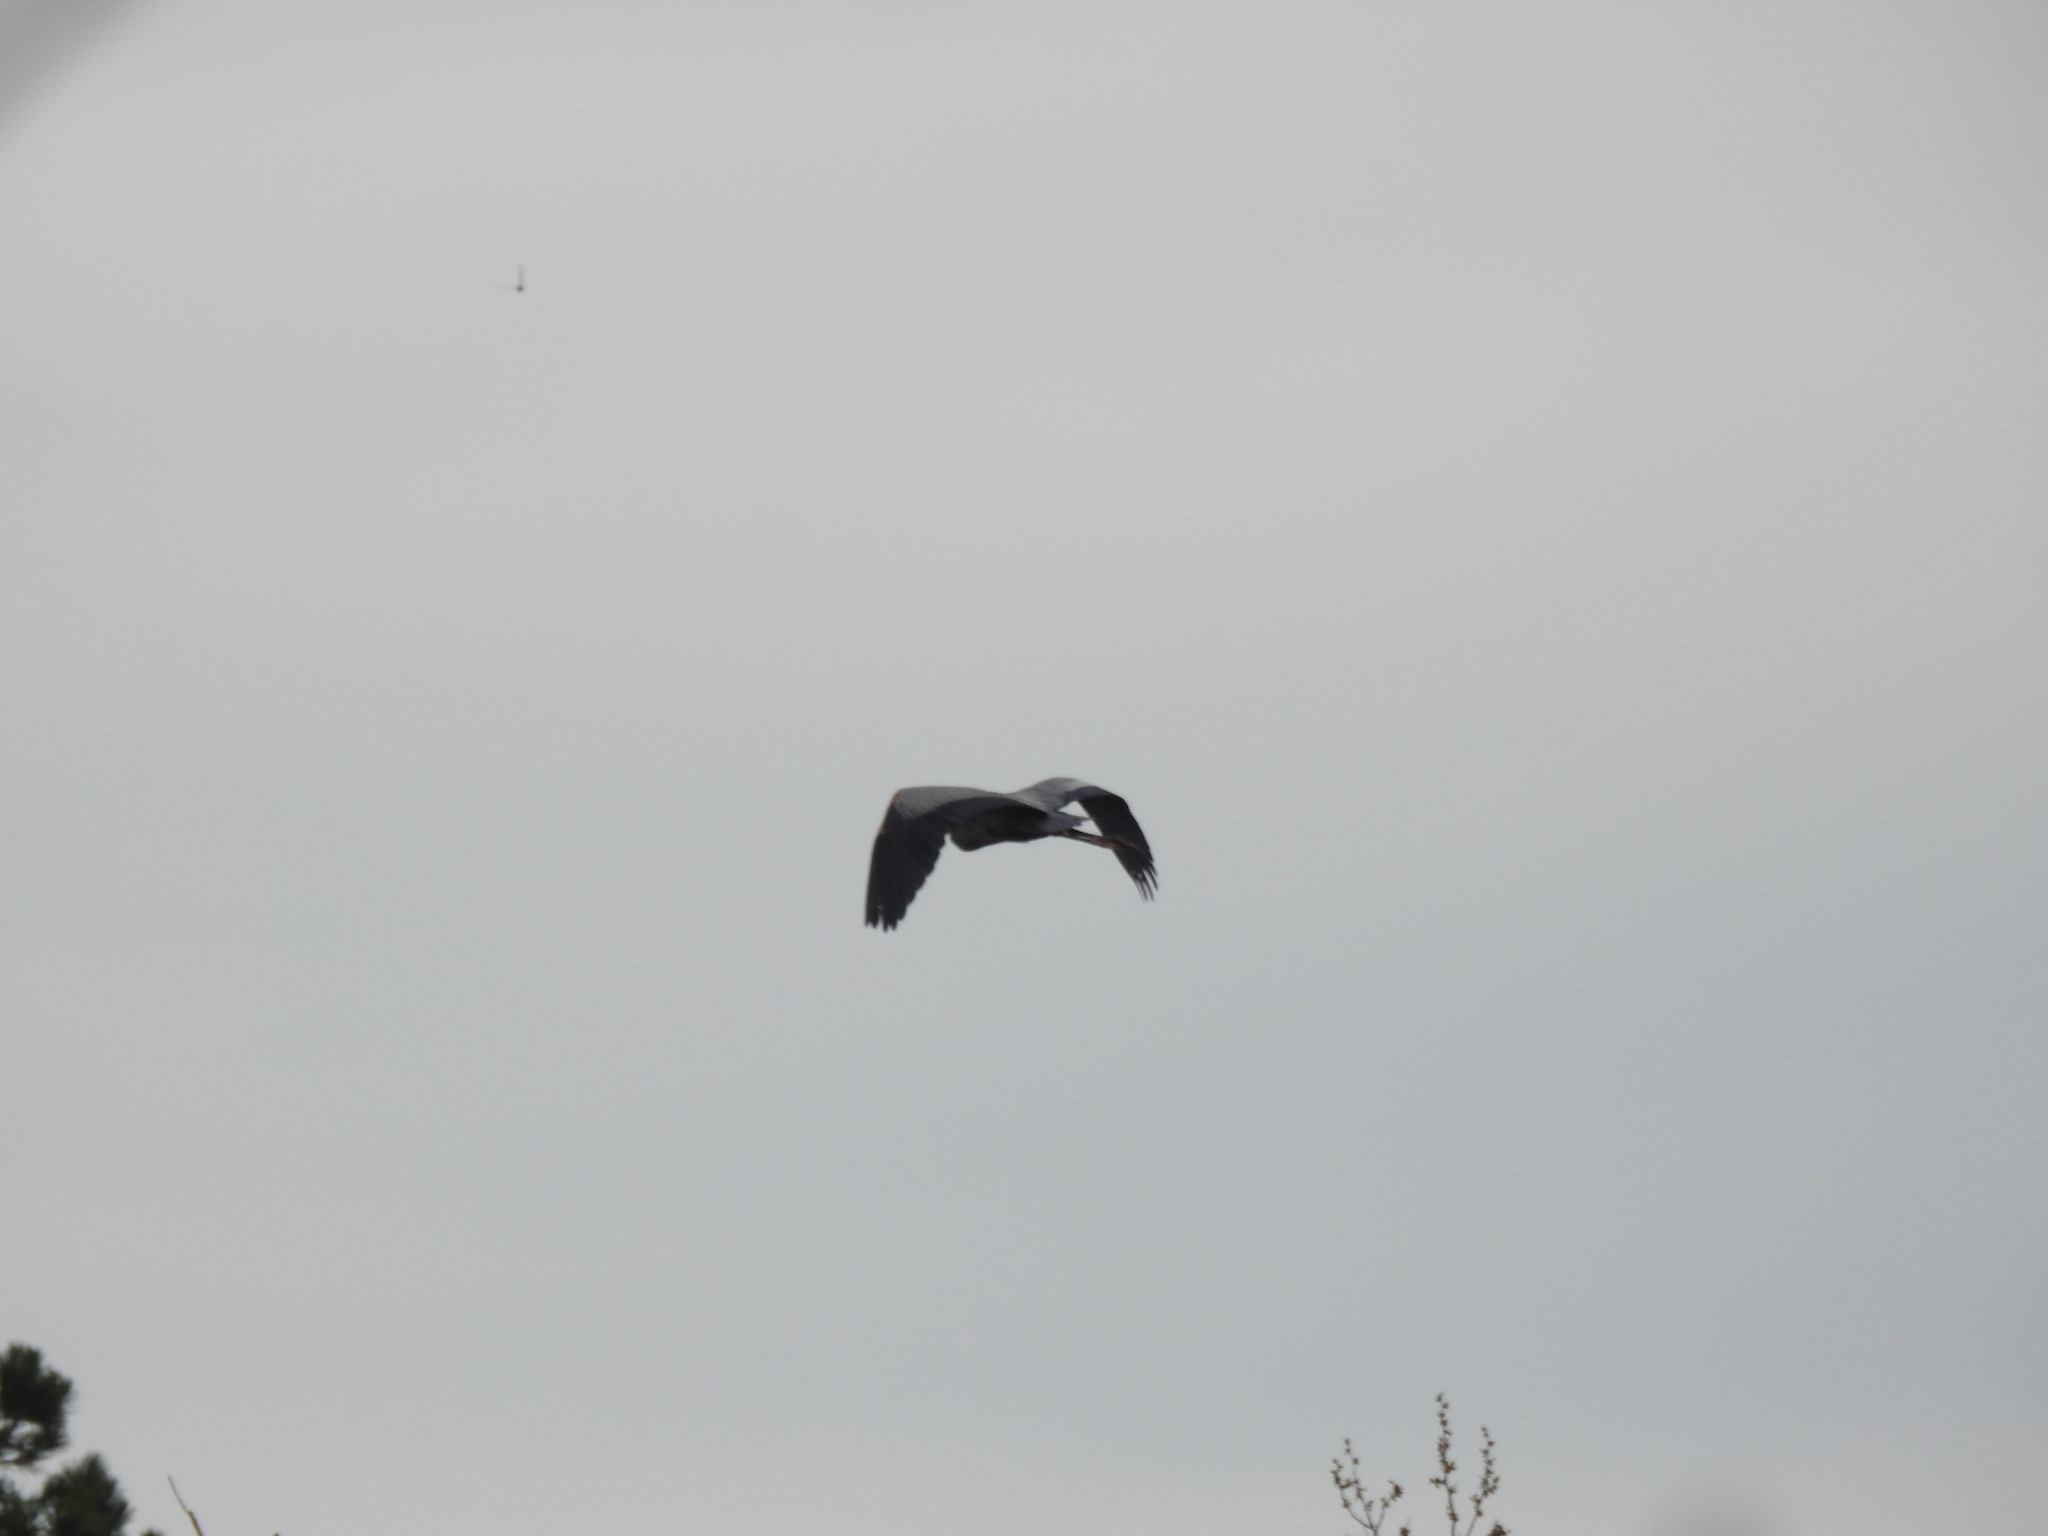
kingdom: Animalia
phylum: Chordata
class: Aves
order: Pelecaniformes
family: Ardeidae
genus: Ardea
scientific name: Ardea herodias
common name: Great blue heron
